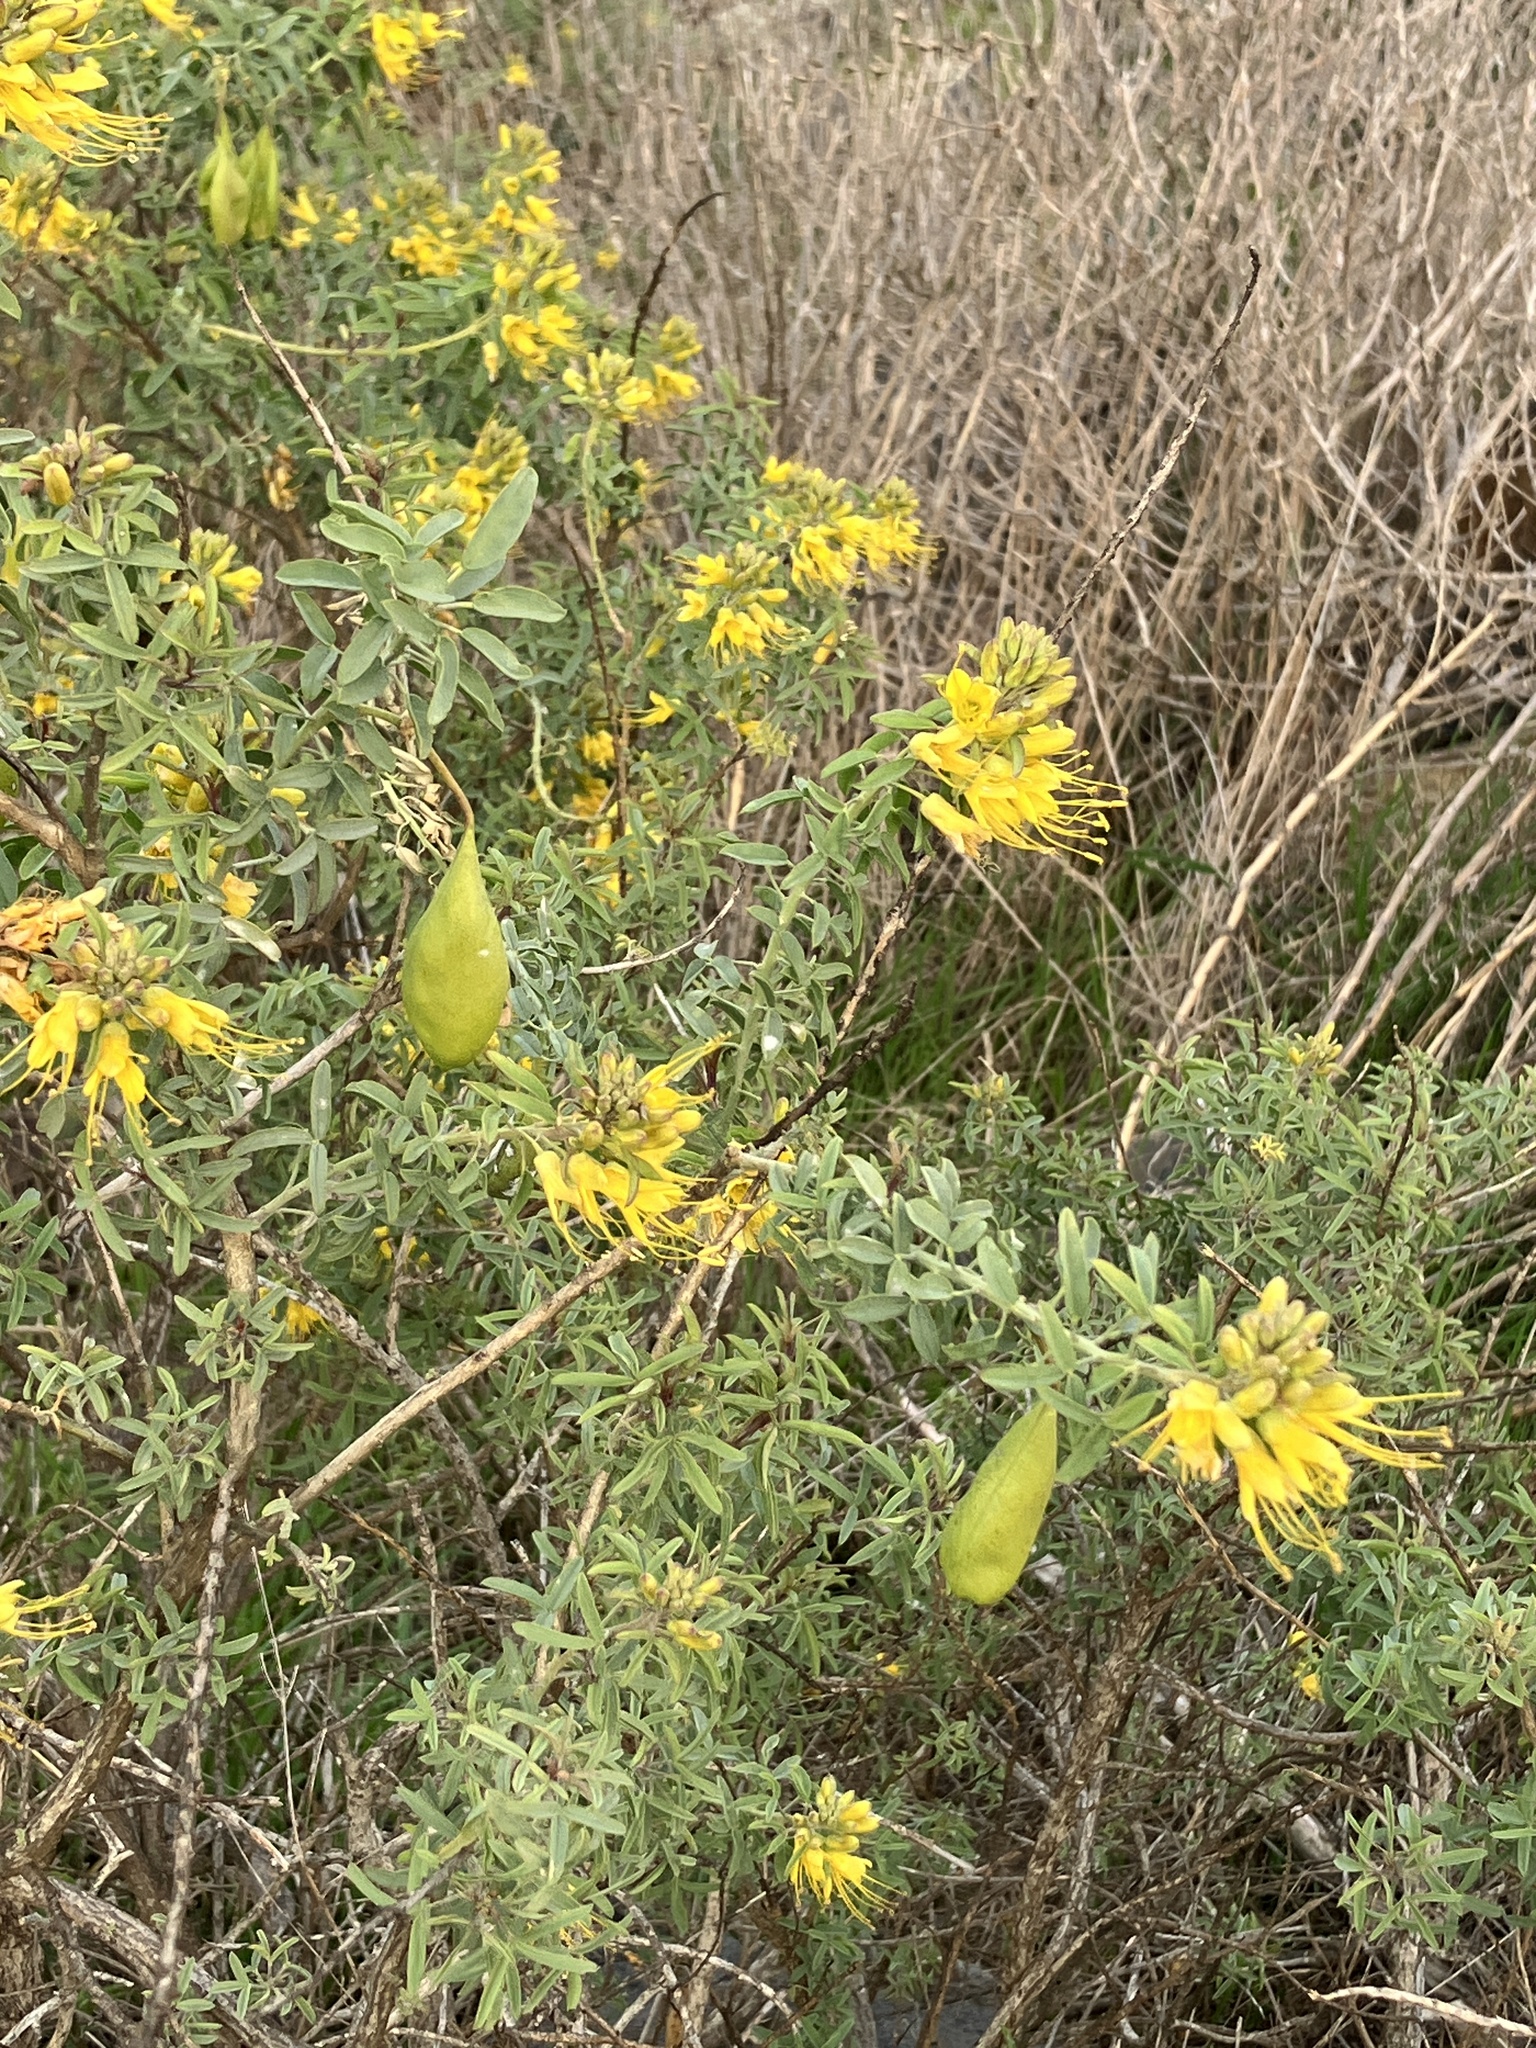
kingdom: Plantae
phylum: Tracheophyta
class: Magnoliopsida
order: Brassicales
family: Cleomaceae
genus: Cleomella
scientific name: Cleomella arborea
